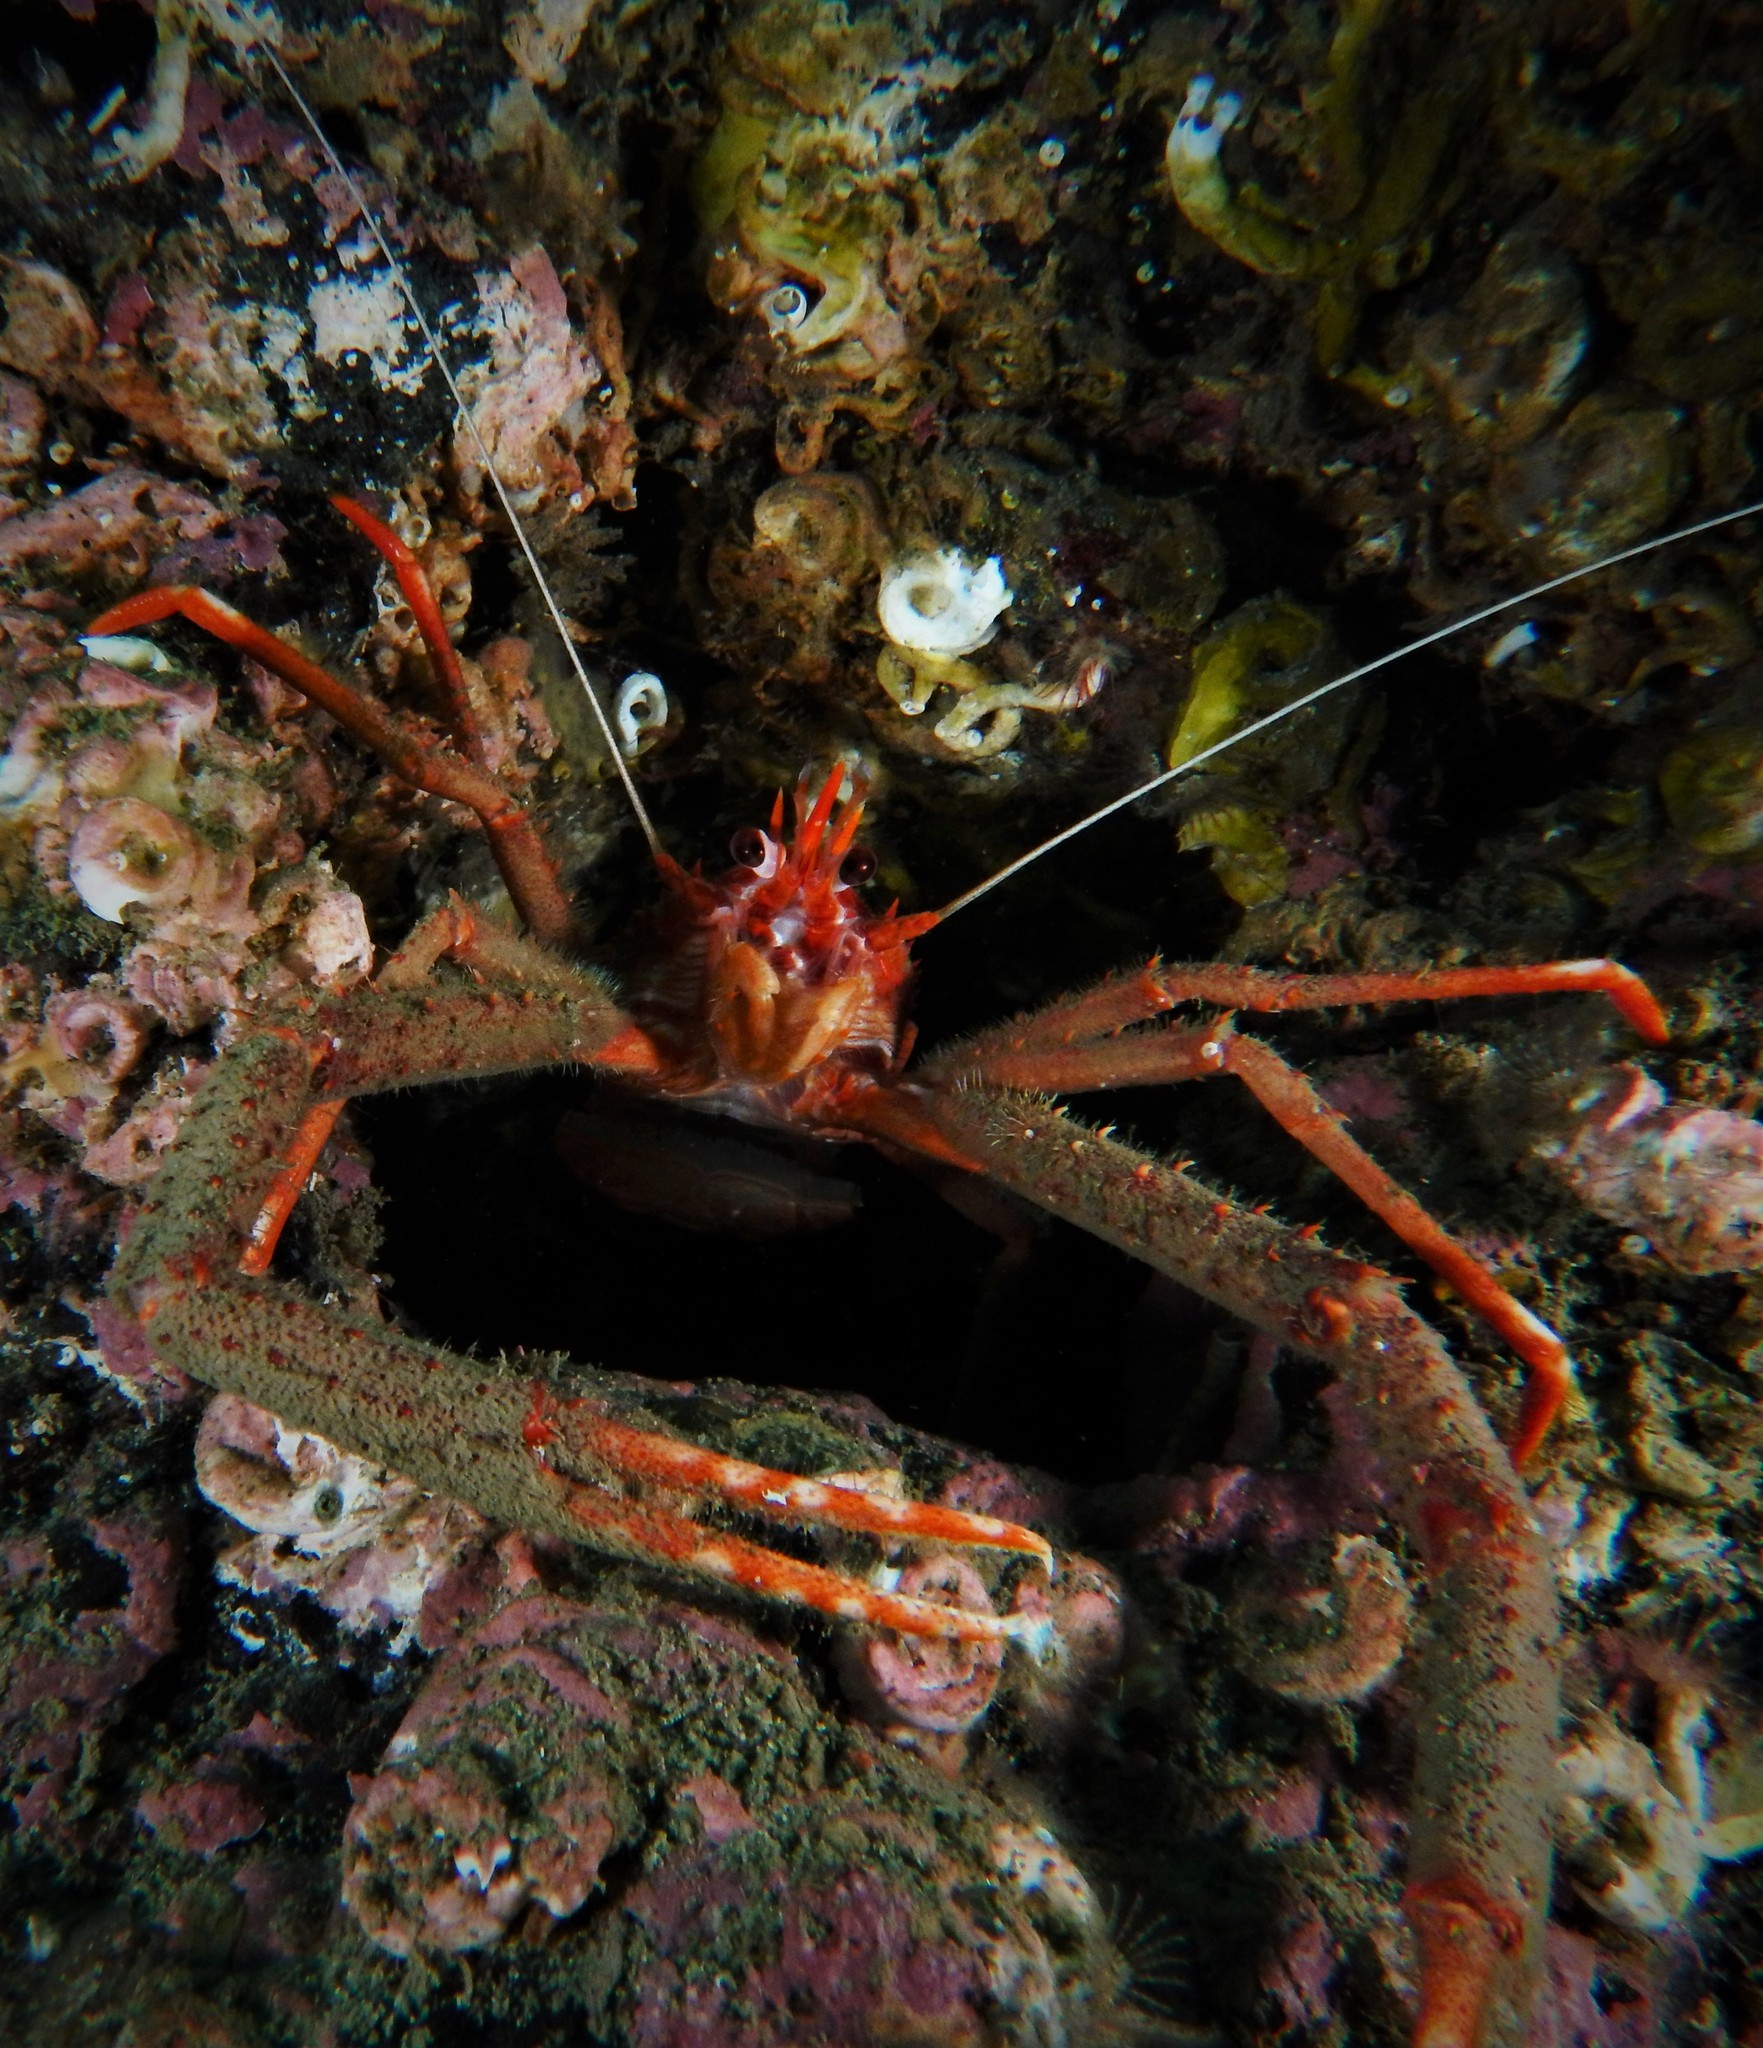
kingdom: Animalia
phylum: Arthropoda
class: Malacostraca
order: Decapoda
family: Munididae
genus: Munida
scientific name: Munida rugosa
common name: Rugose squat lobster
